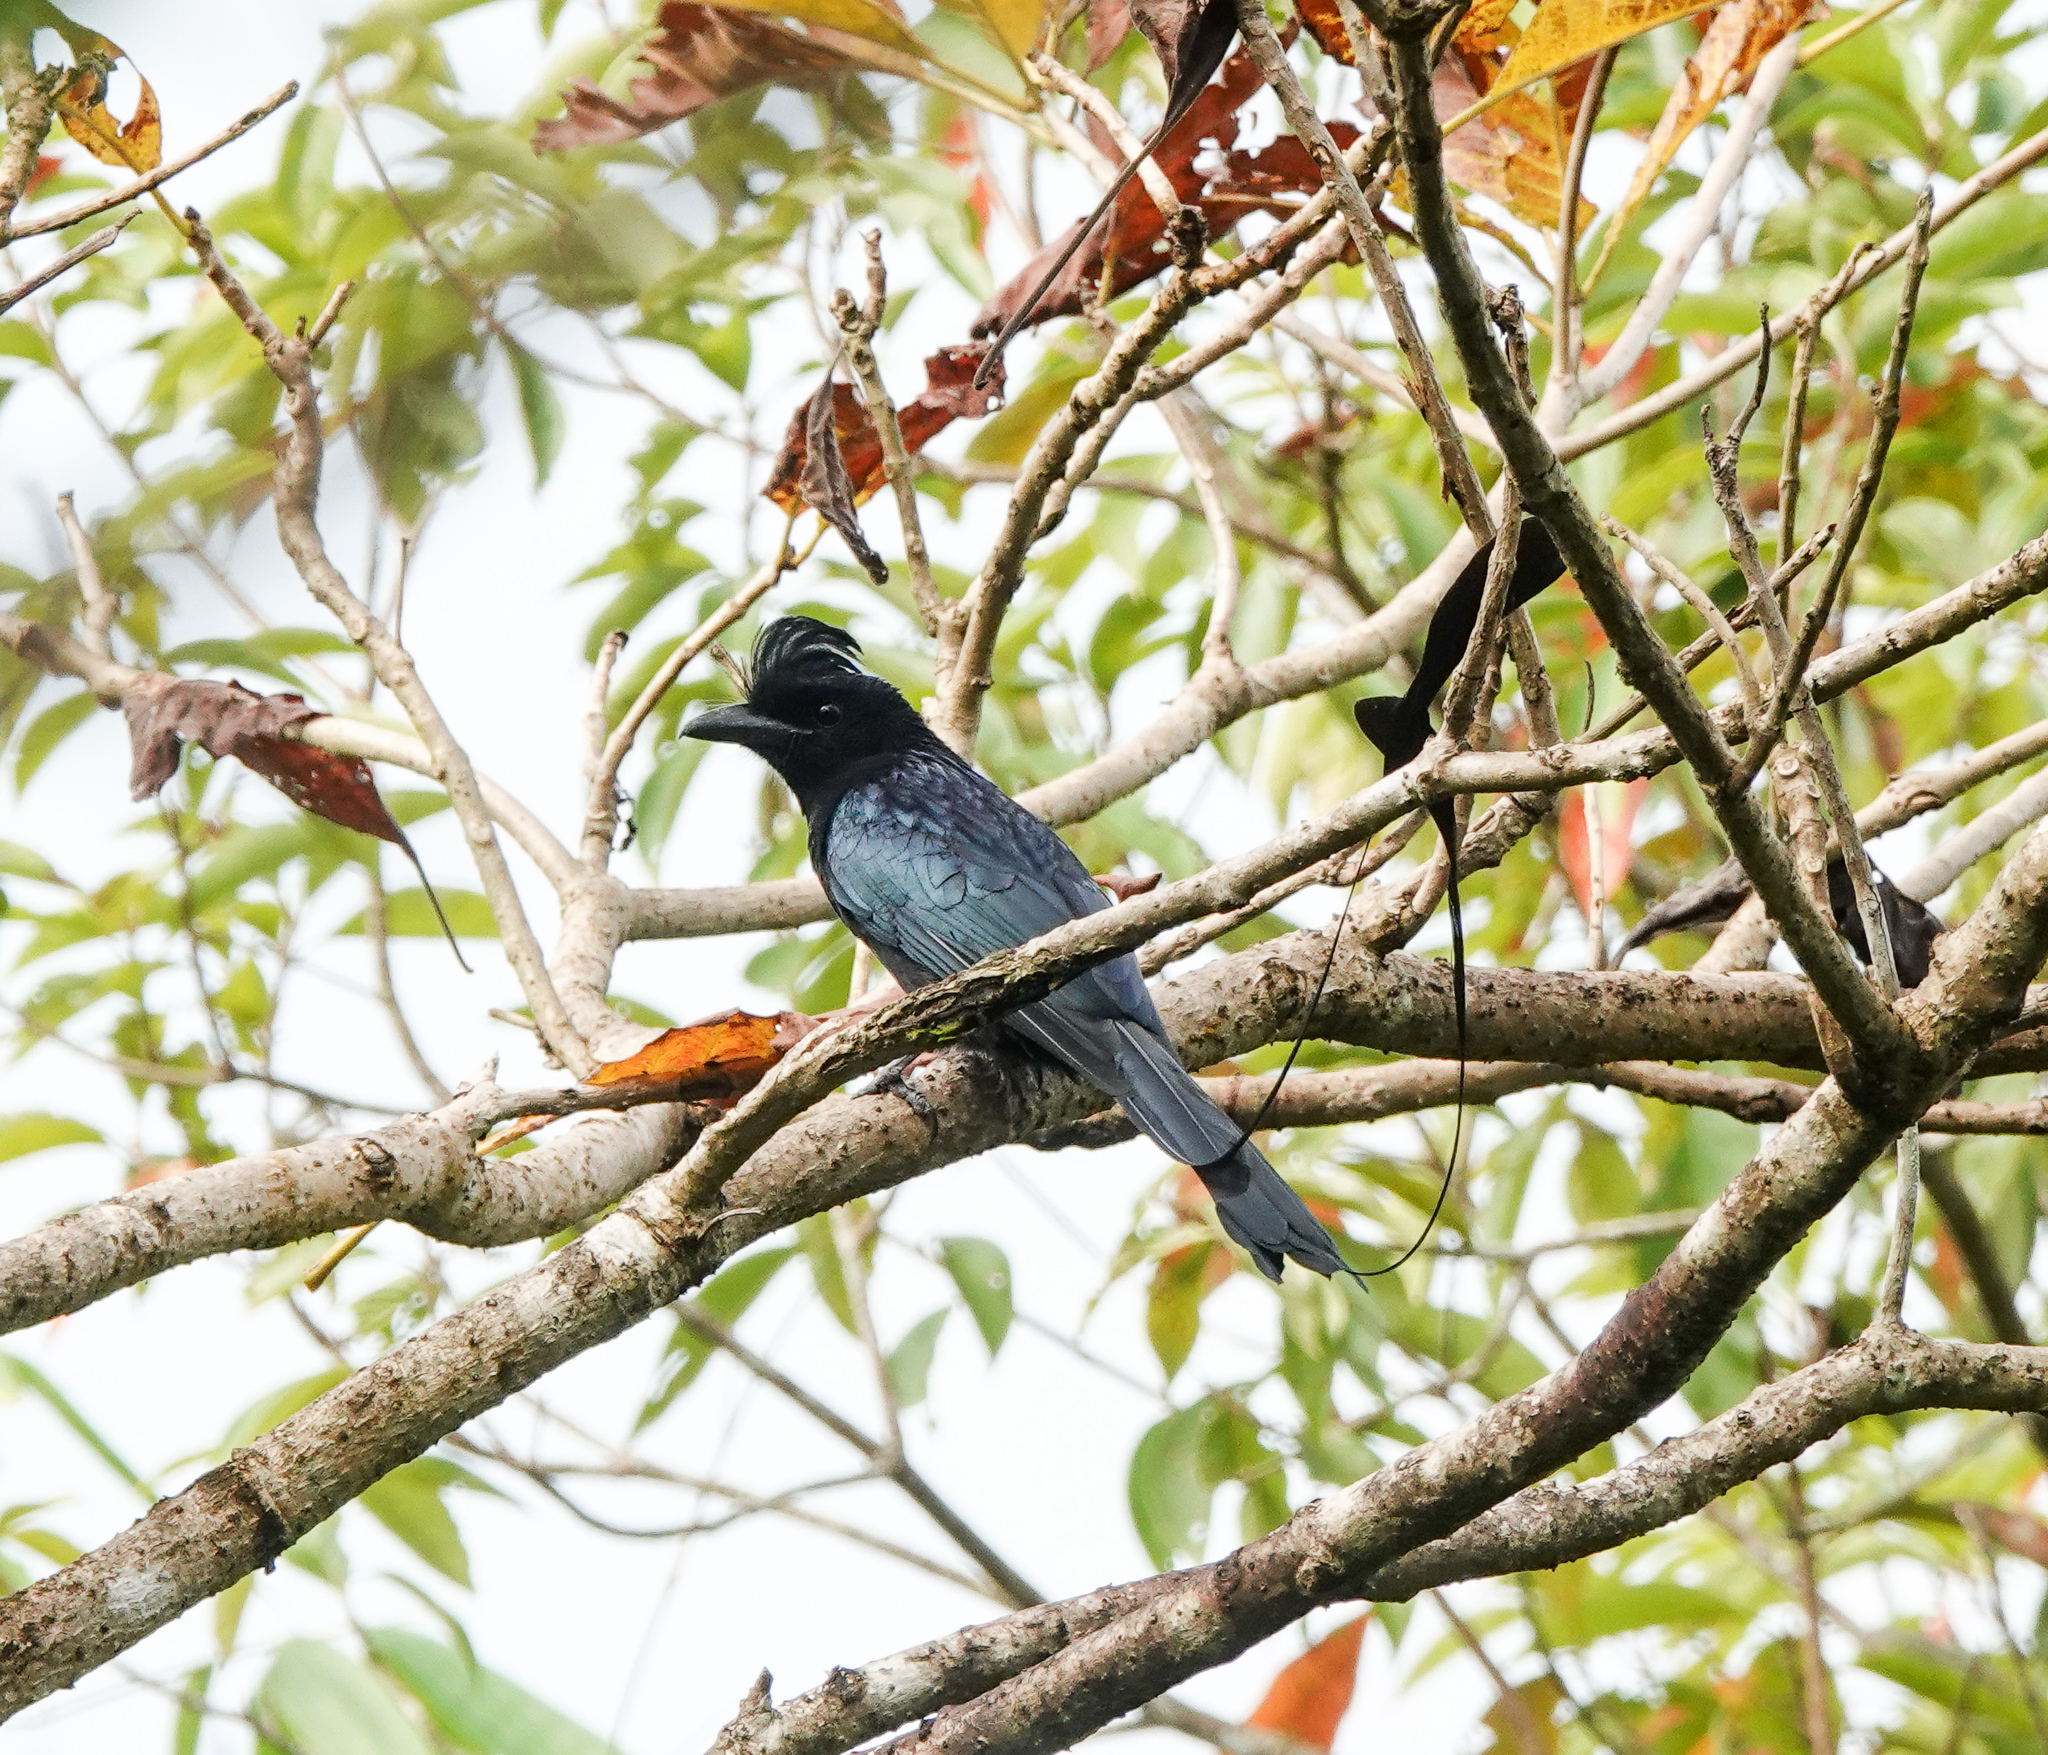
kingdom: Animalia
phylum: Chordata
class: Aves
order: Passeriformes
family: Dicruridae
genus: Dicrurus
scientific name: Dicrurus paradiseus
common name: Greater racket-tailed drongo
